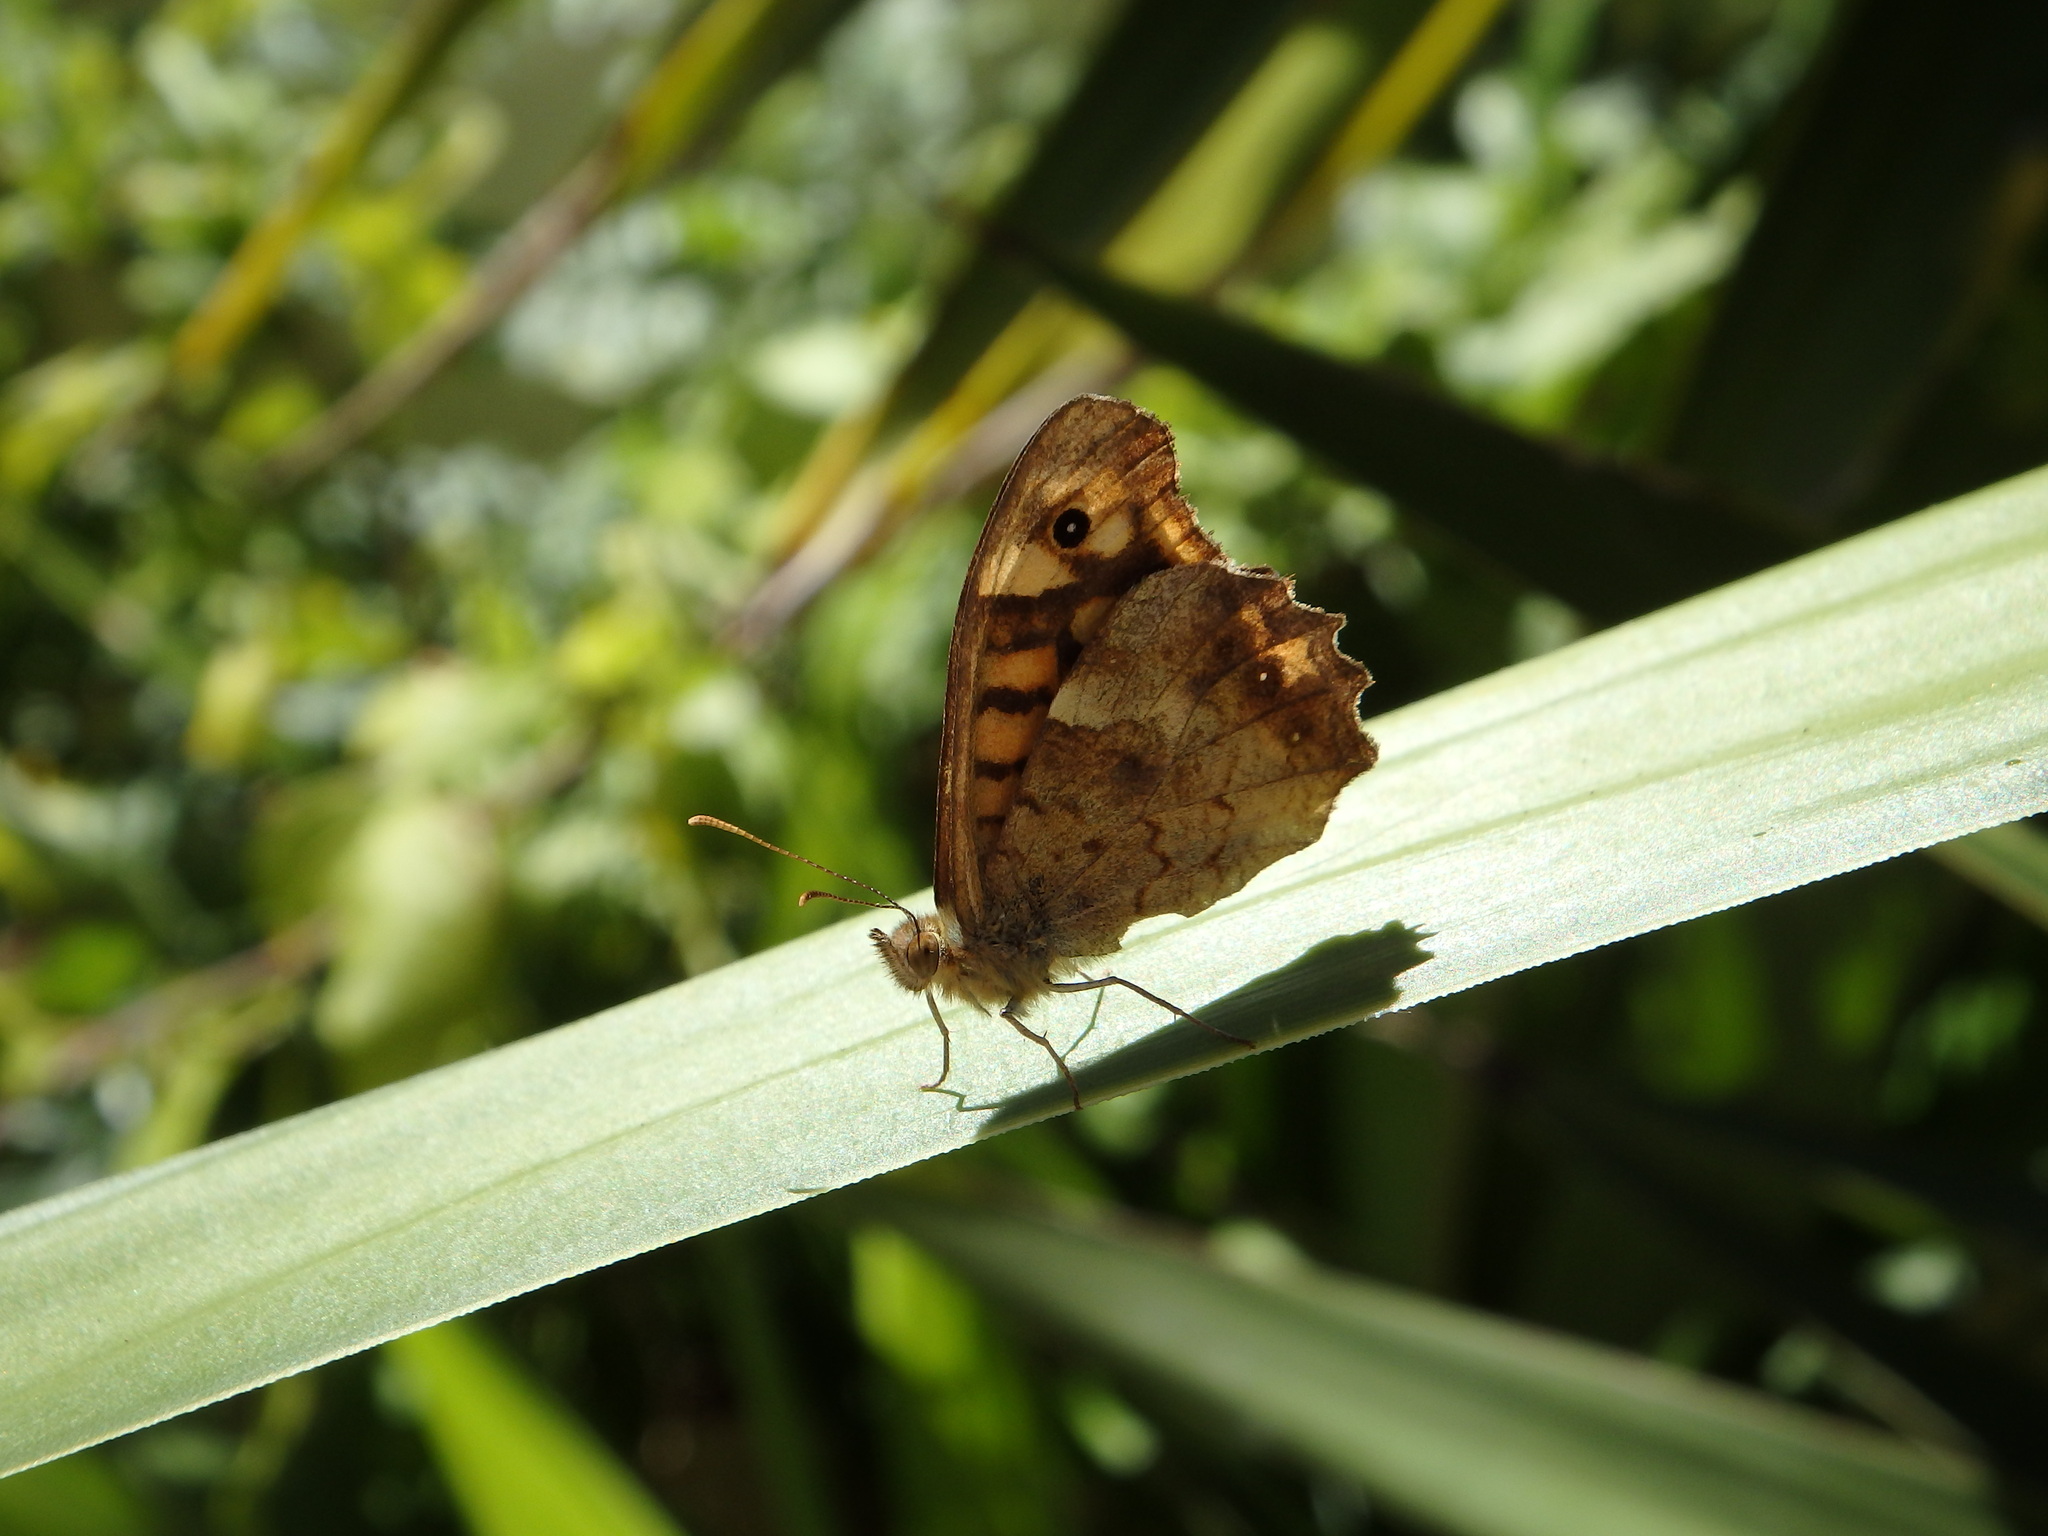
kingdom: Animalia
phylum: Arthropoda
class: Insecta
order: Lepidoptera
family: Nymphalidae
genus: Pararge
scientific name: Pararge aegeria
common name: Speckled wood
